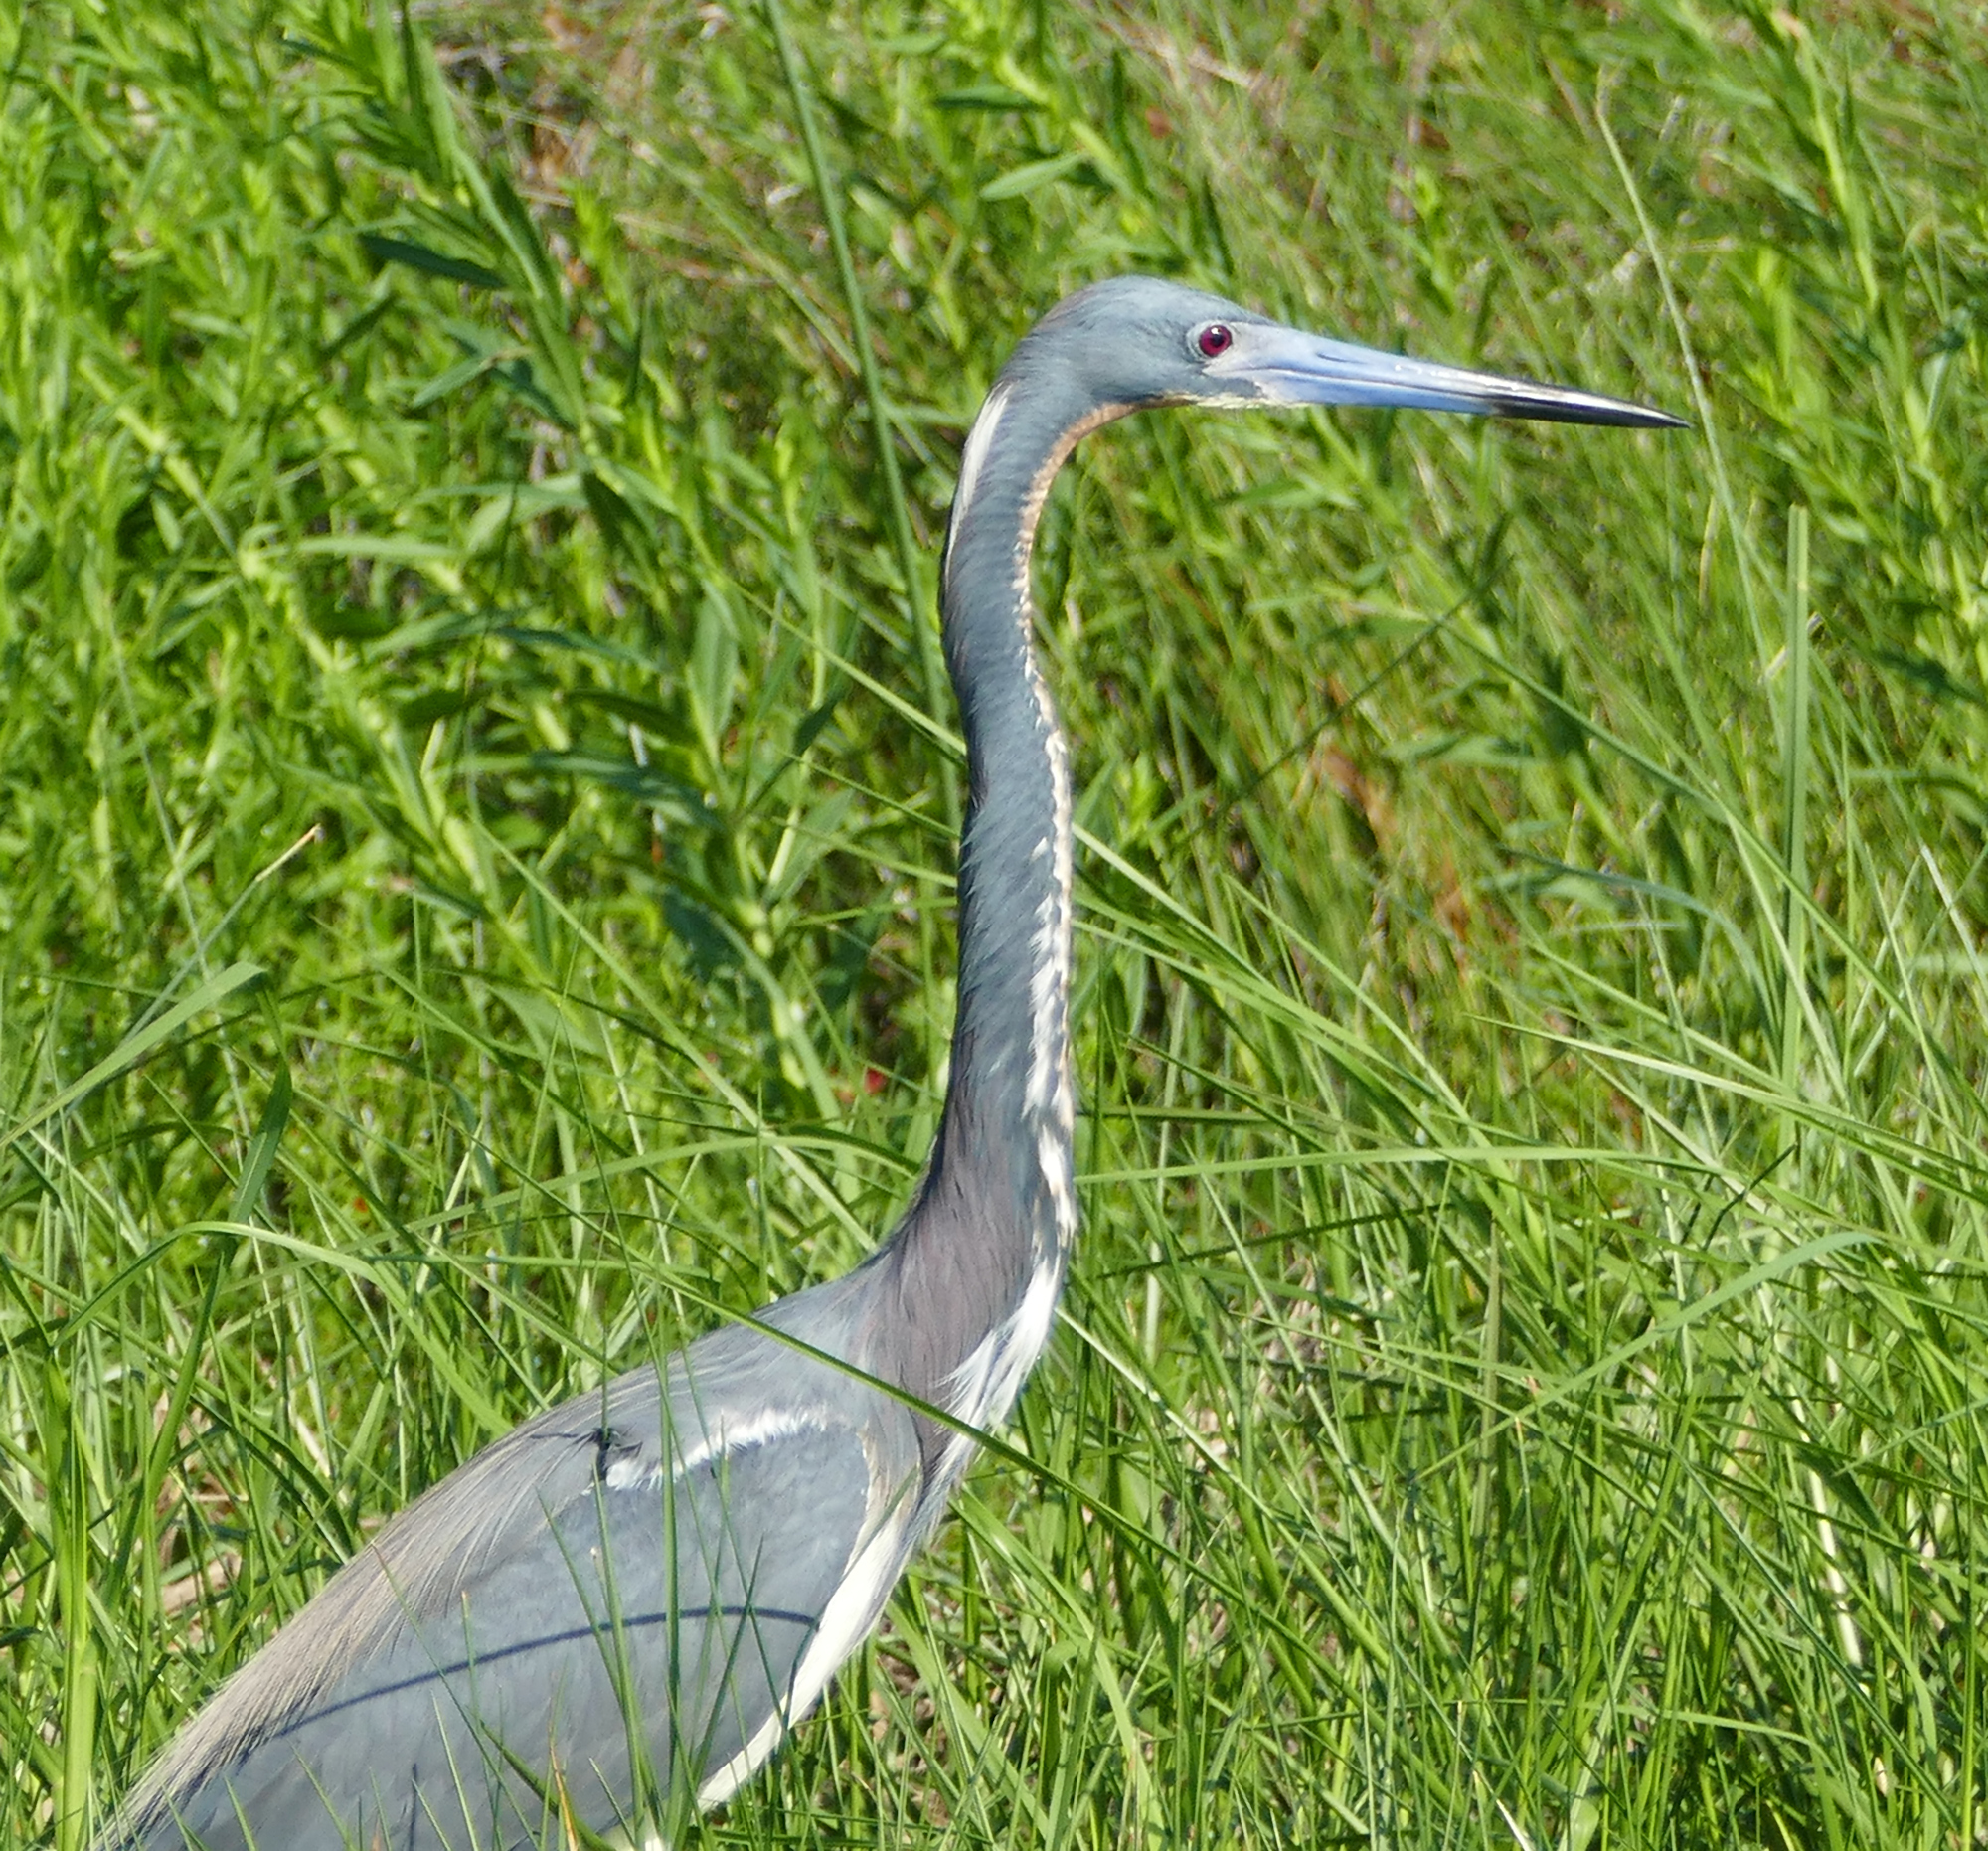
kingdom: Animalia
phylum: Chordata
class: Aves
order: Pelecaniformes
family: Ardeidae
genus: Egretta
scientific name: Egretta tricolor
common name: Tricolored heron
